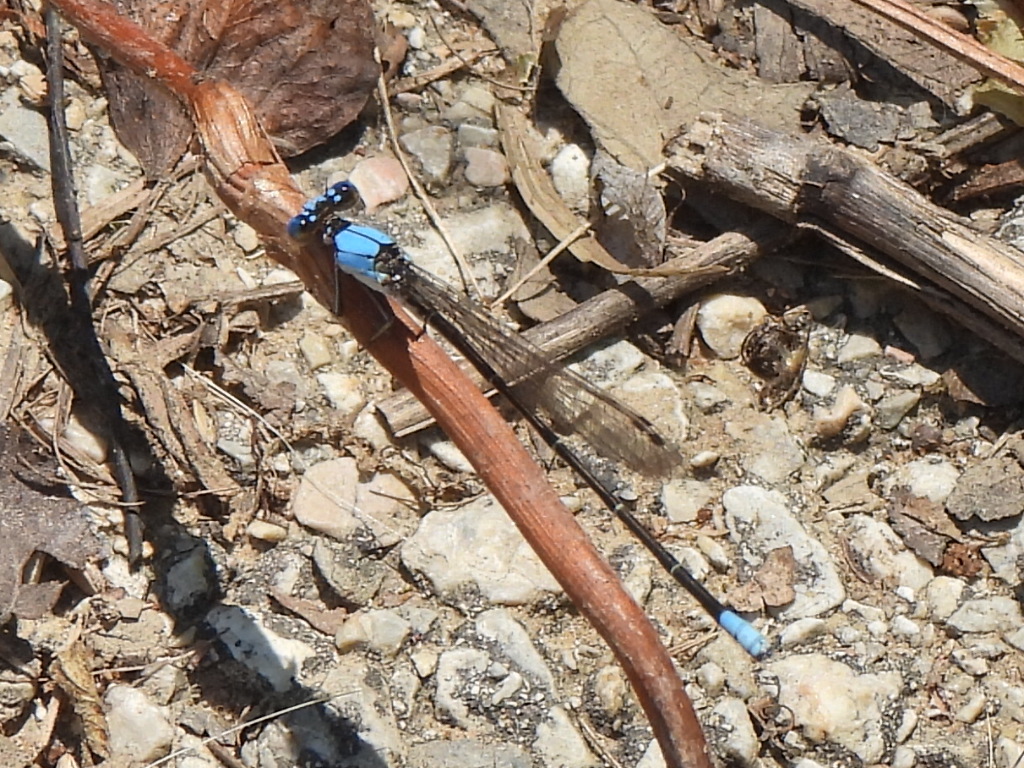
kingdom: Animalia
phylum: Arthropoda
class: Insecta
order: Odonata
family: Coenagrionidae
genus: Argia
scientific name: Argia apicalis
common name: Blue-fronted dancer
